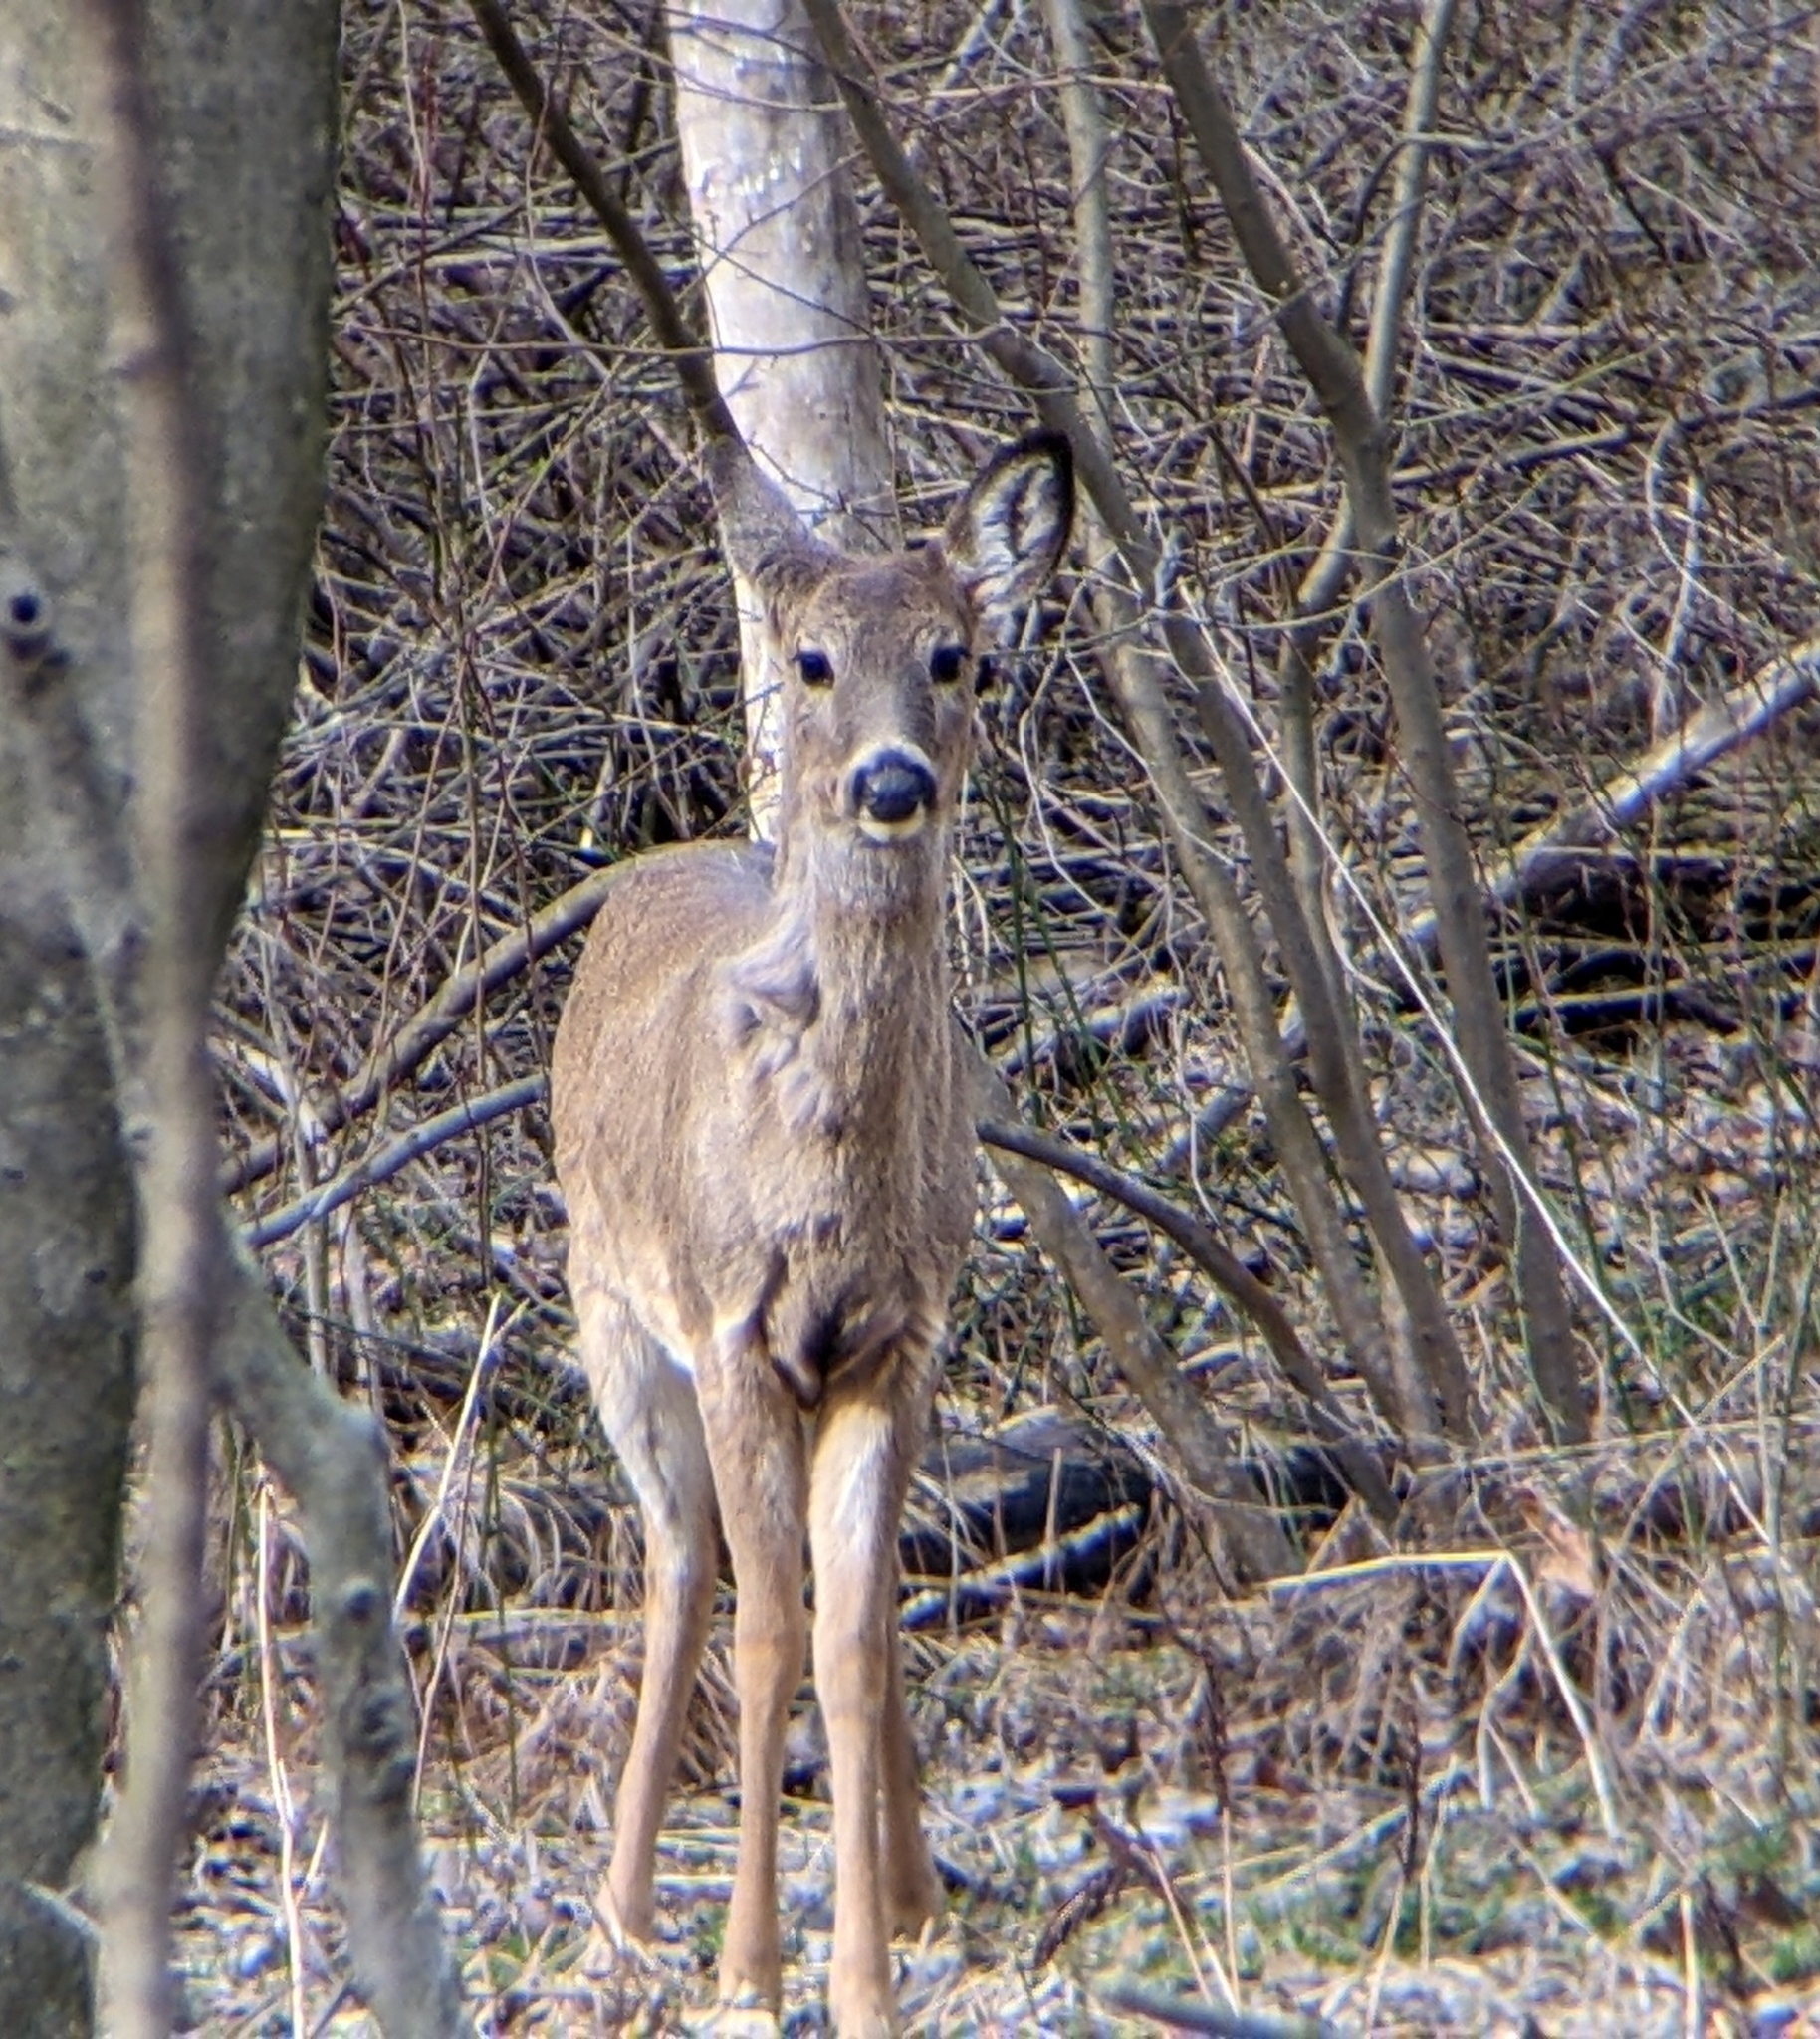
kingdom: Animalia
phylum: Chordata
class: Mammalia
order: Artiodactyla
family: Cervidae
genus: Odocoileus
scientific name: Odocoileus virginianus
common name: White-tailed deer
